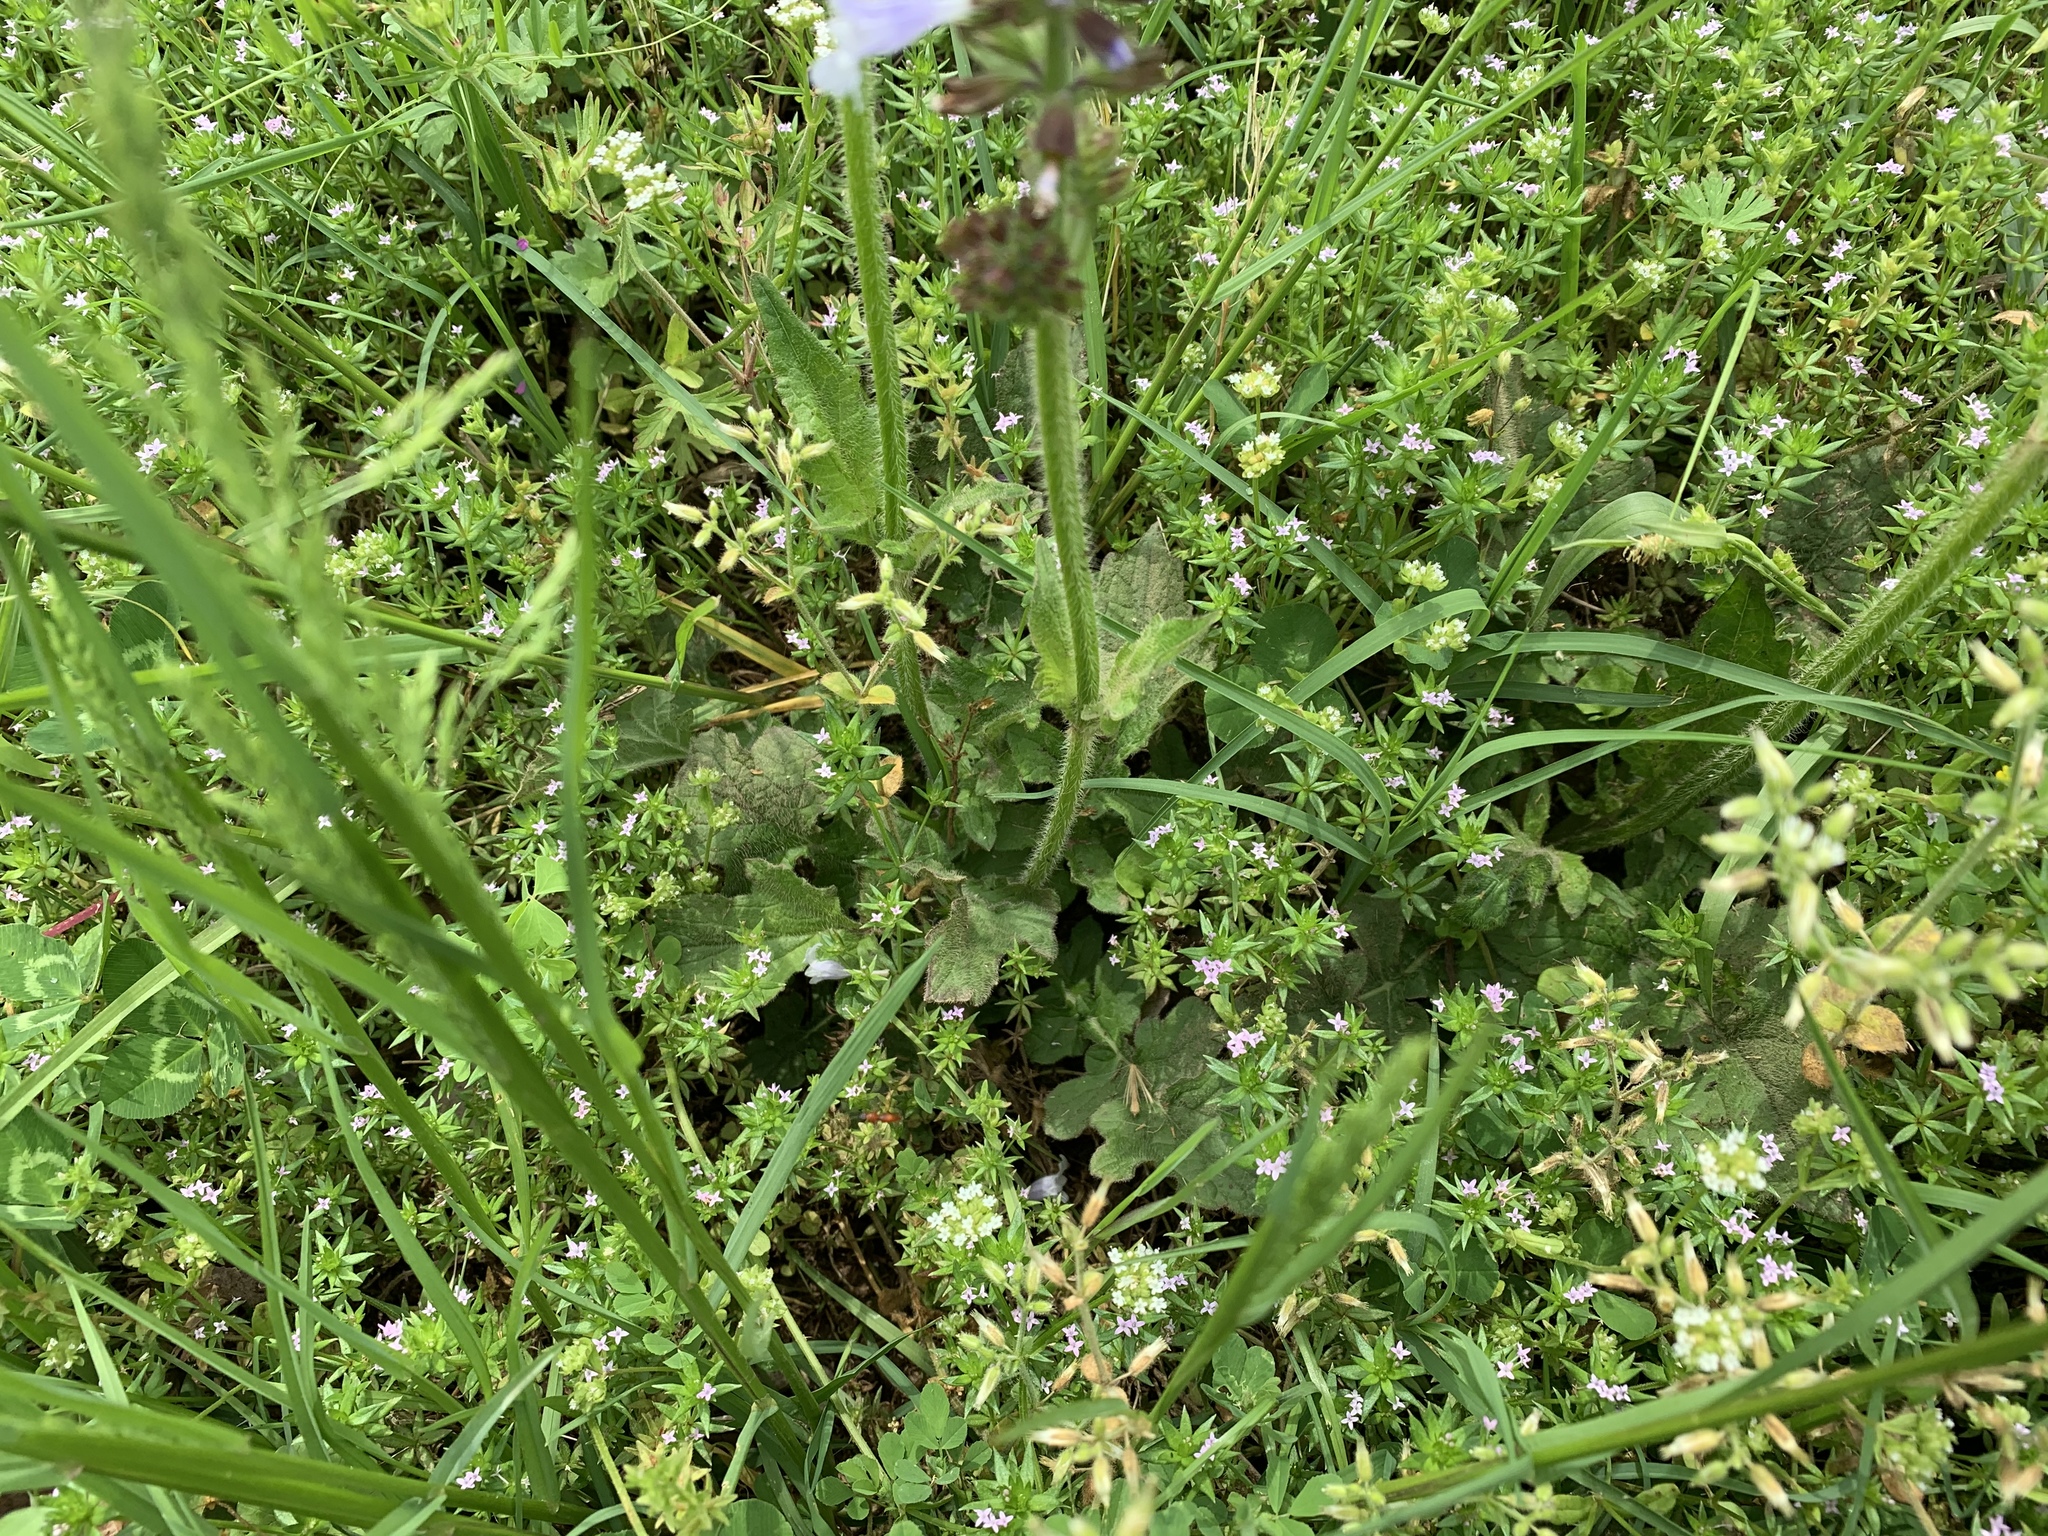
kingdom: Plantae
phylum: Tracheophyta
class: Magnoliopsida
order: Lamiales
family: Lamiaceae
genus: Salvia
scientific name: Salvia lyrata
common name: Cancerweed
